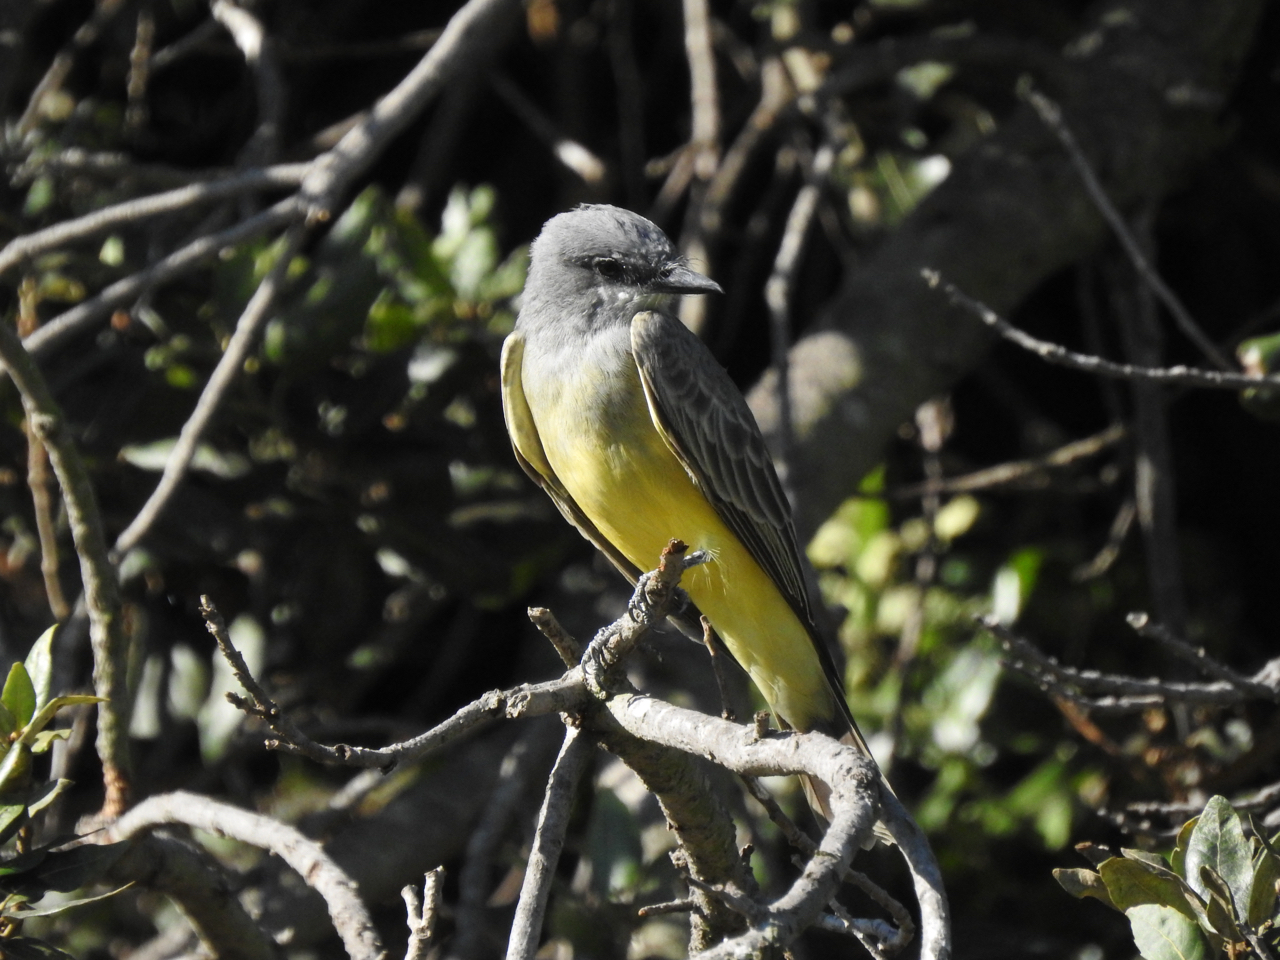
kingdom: Animalia
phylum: Chordata
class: Aves
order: Passeriformes
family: Tyrannidae
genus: Tyrannus
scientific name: Tyrannus vociferans
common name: Cassin's kingbird
